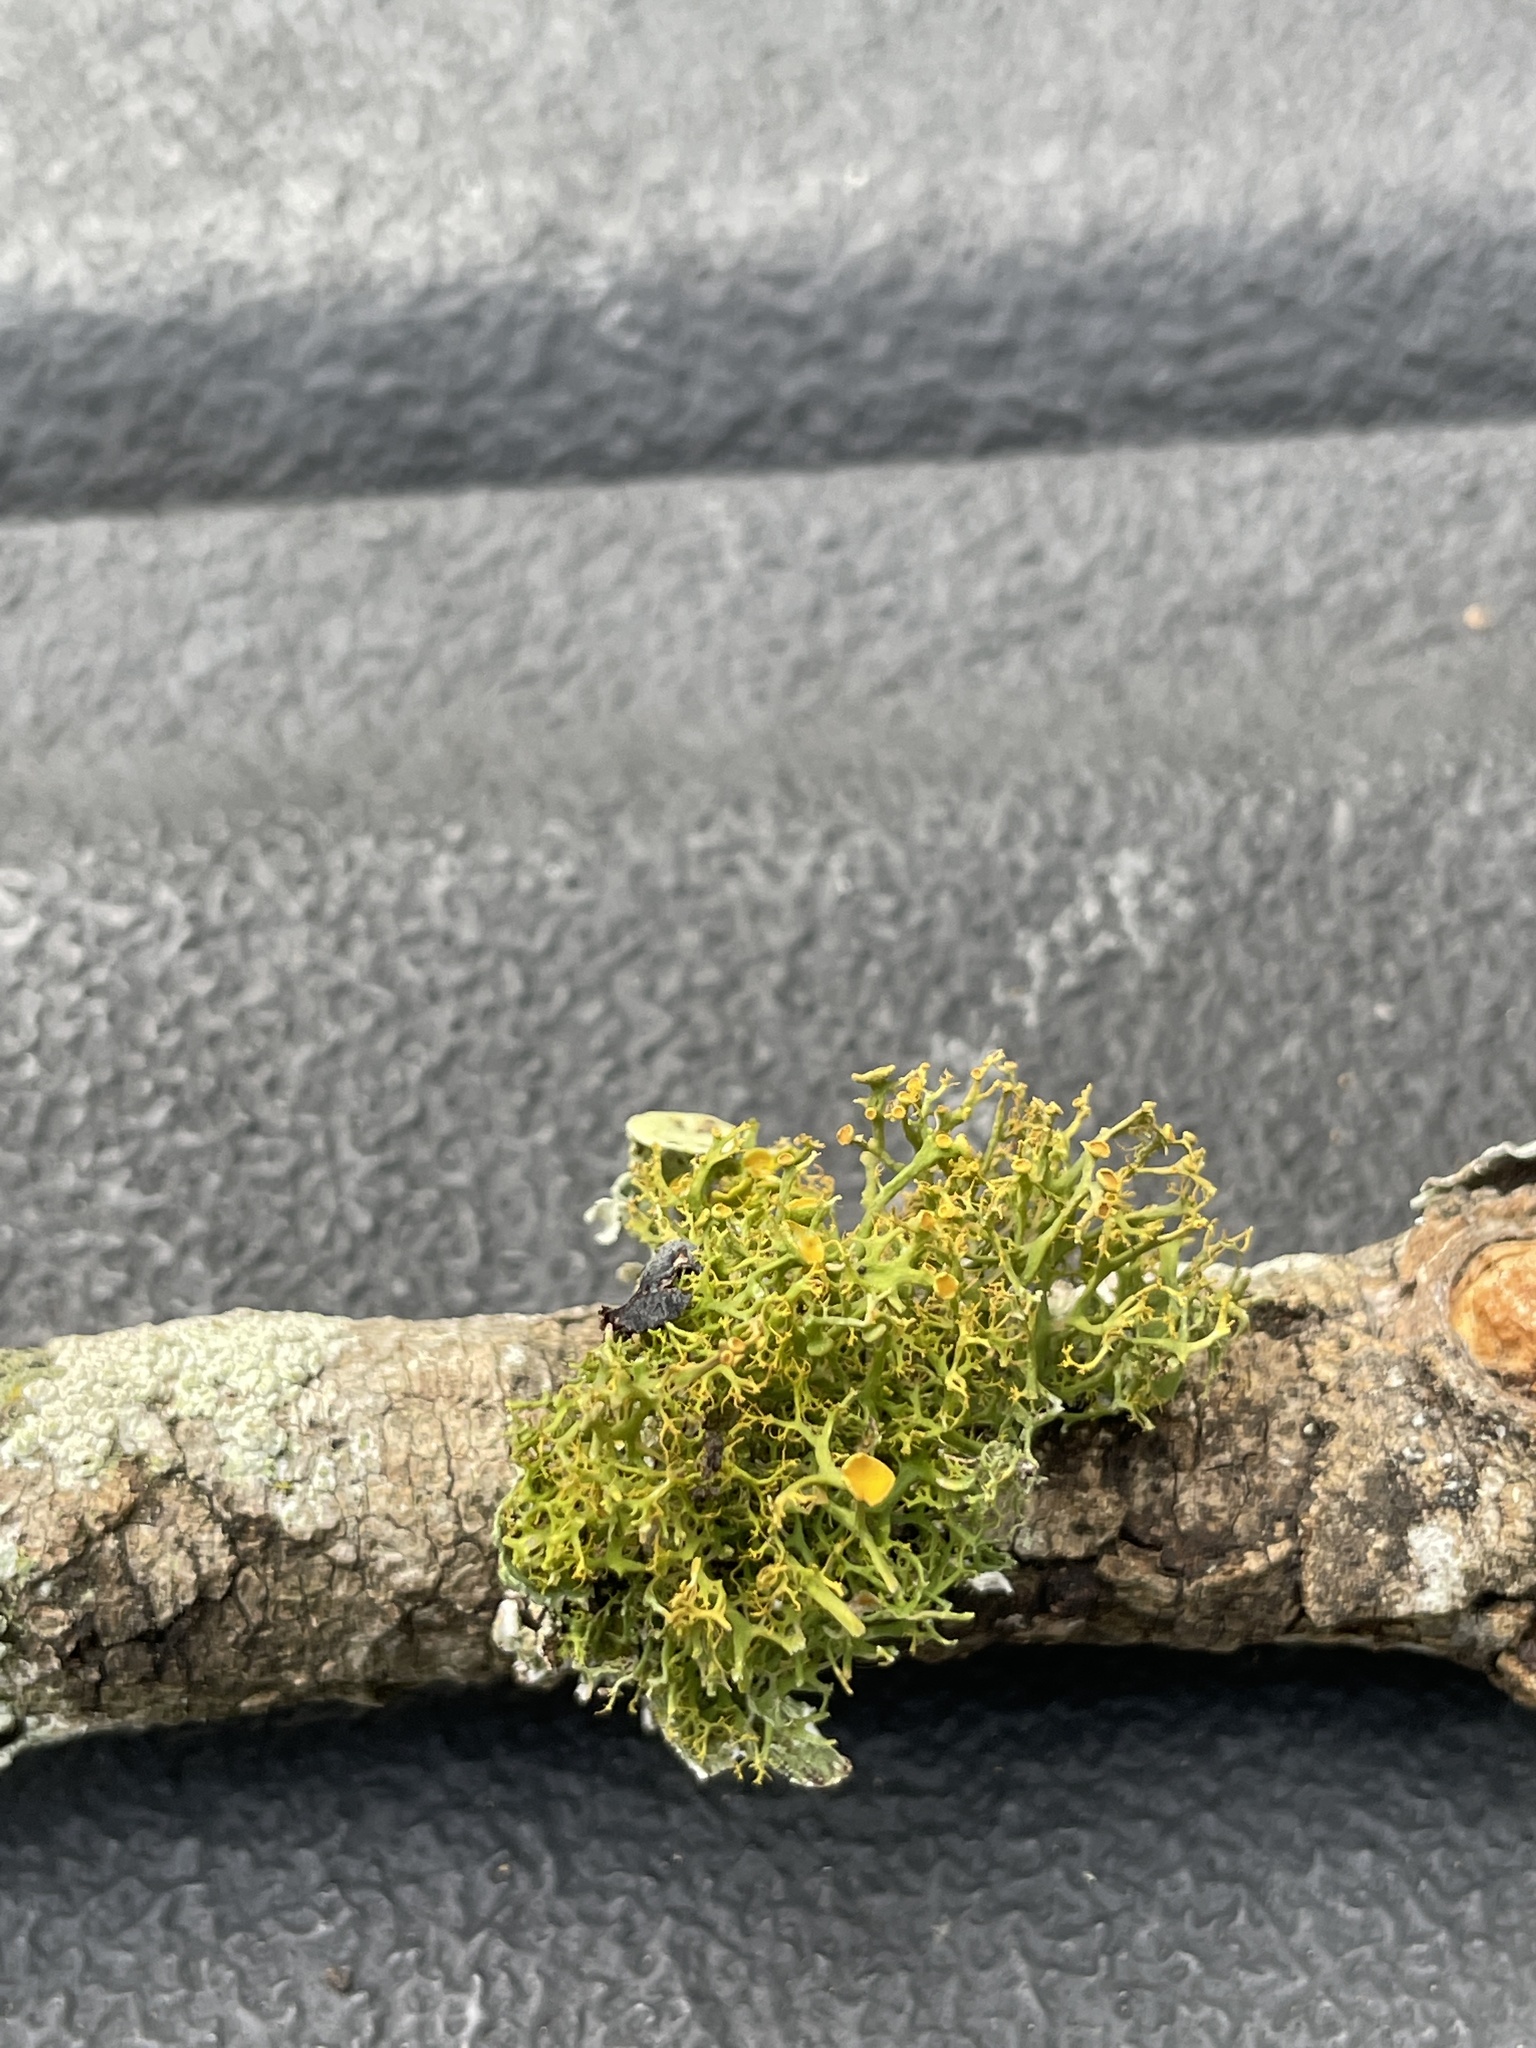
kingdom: Fungi
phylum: Ascomycota
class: Lecanoromycetes
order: Teloschistales
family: Teloschistaceae
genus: Teloschistes
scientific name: Teloschistes exilis
